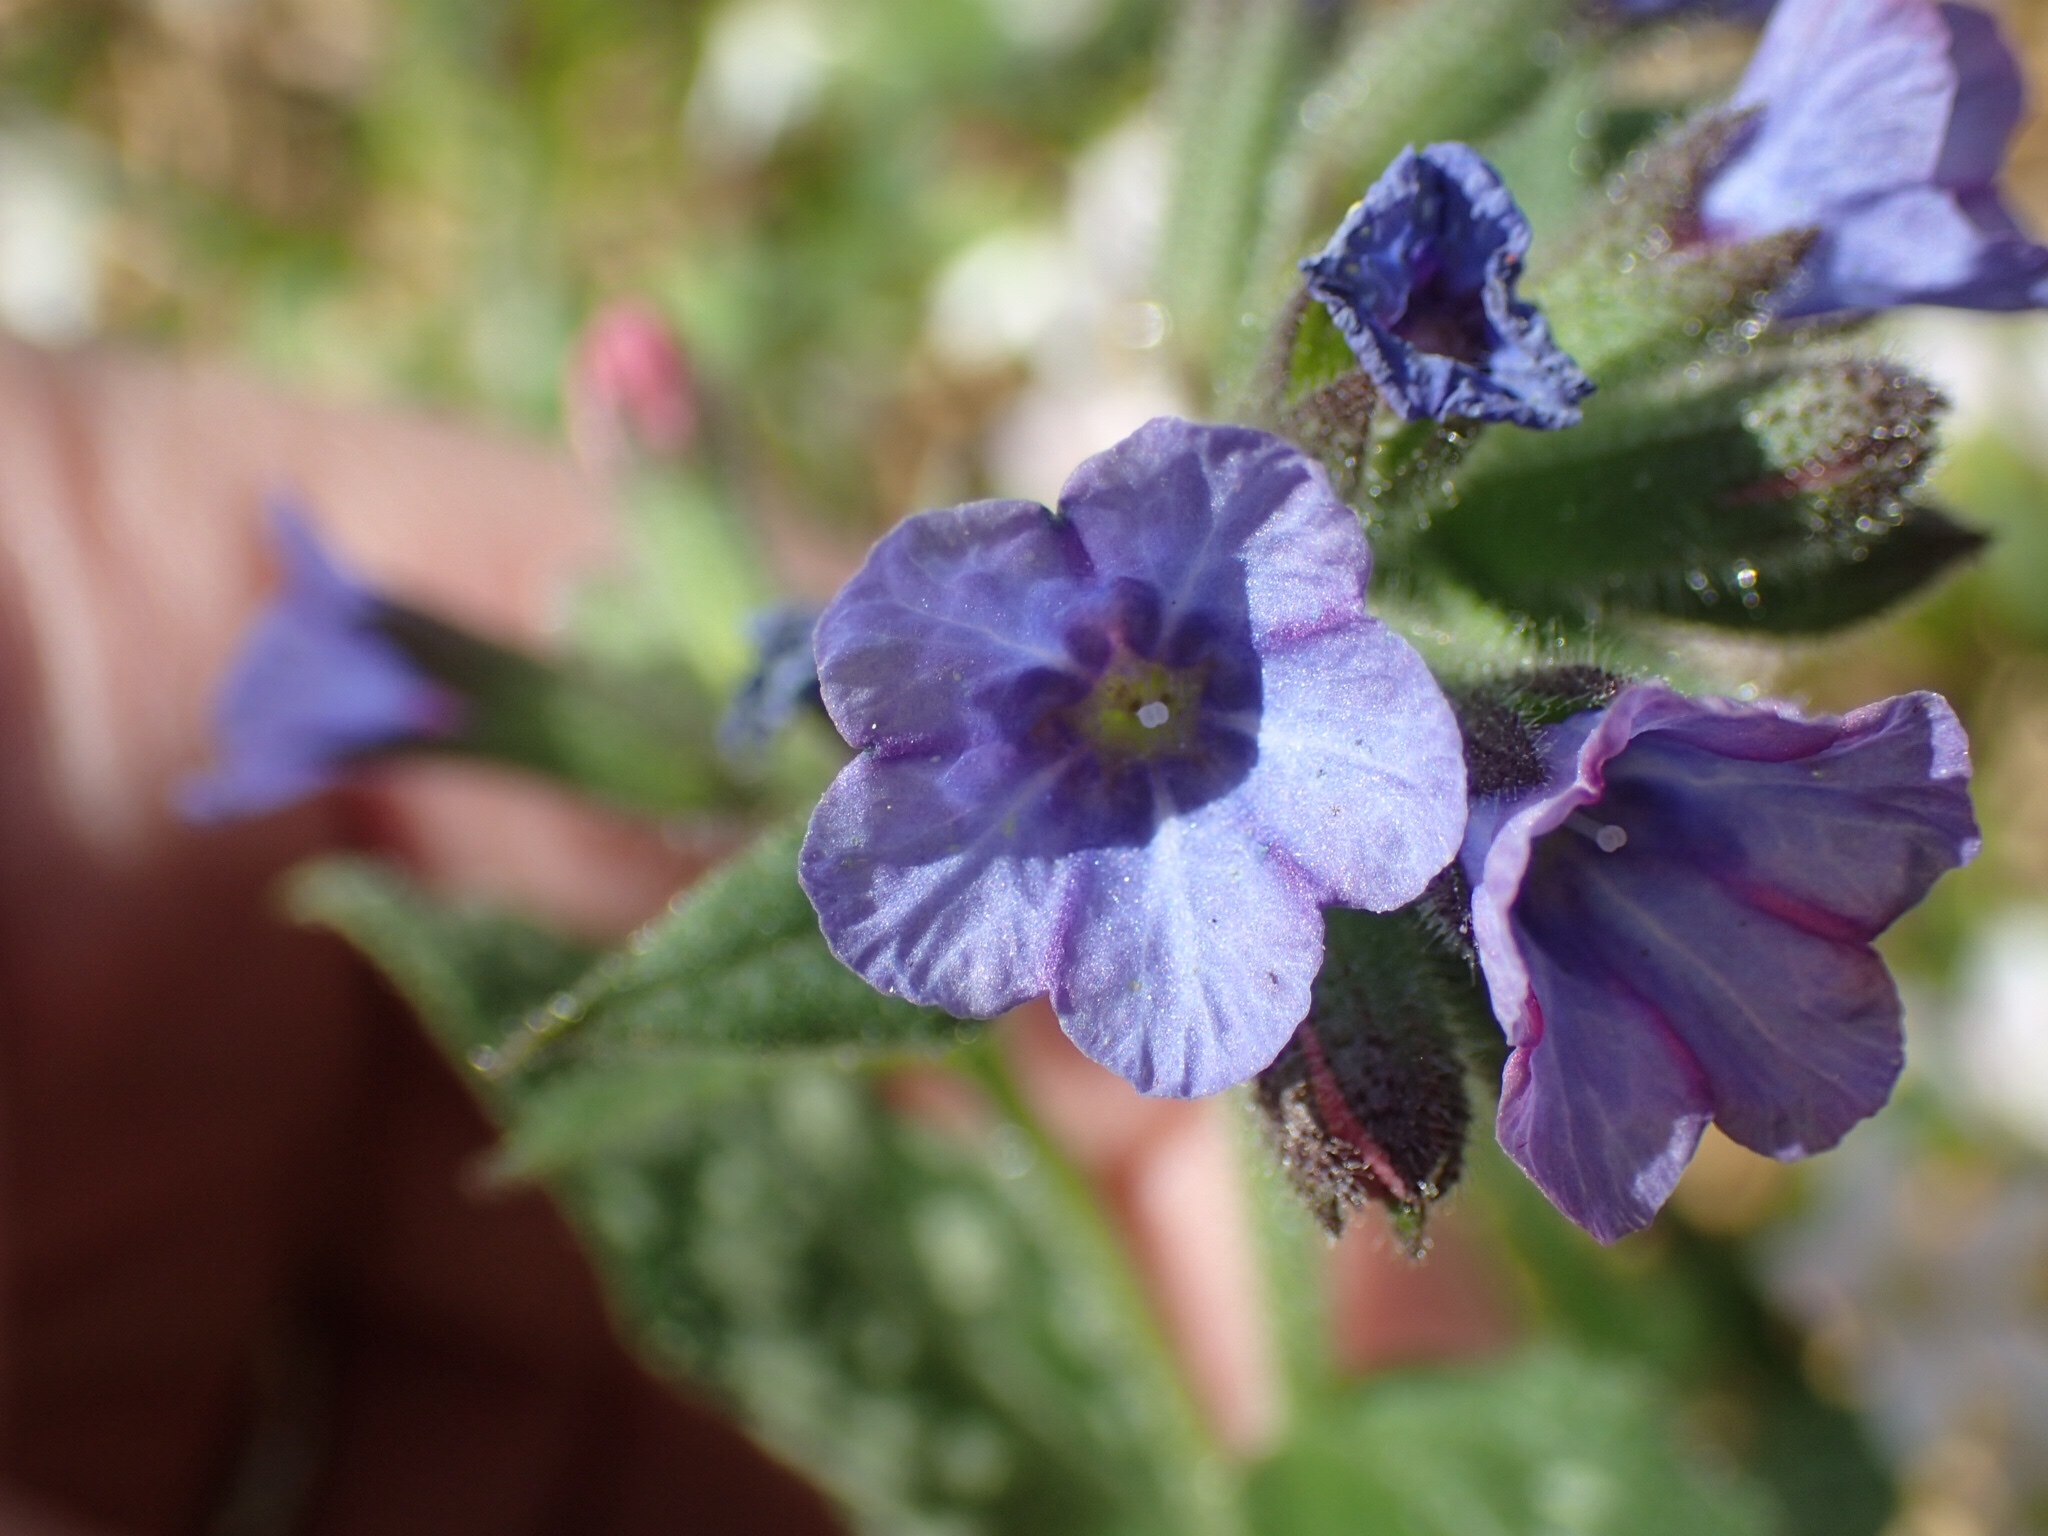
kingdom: Plantae
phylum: Tracheophyta
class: Magnoliopsida
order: Boraginales
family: Boraginaceae
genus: Pulmonaria
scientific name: Pulmonaria officinalis
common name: Lungwort
